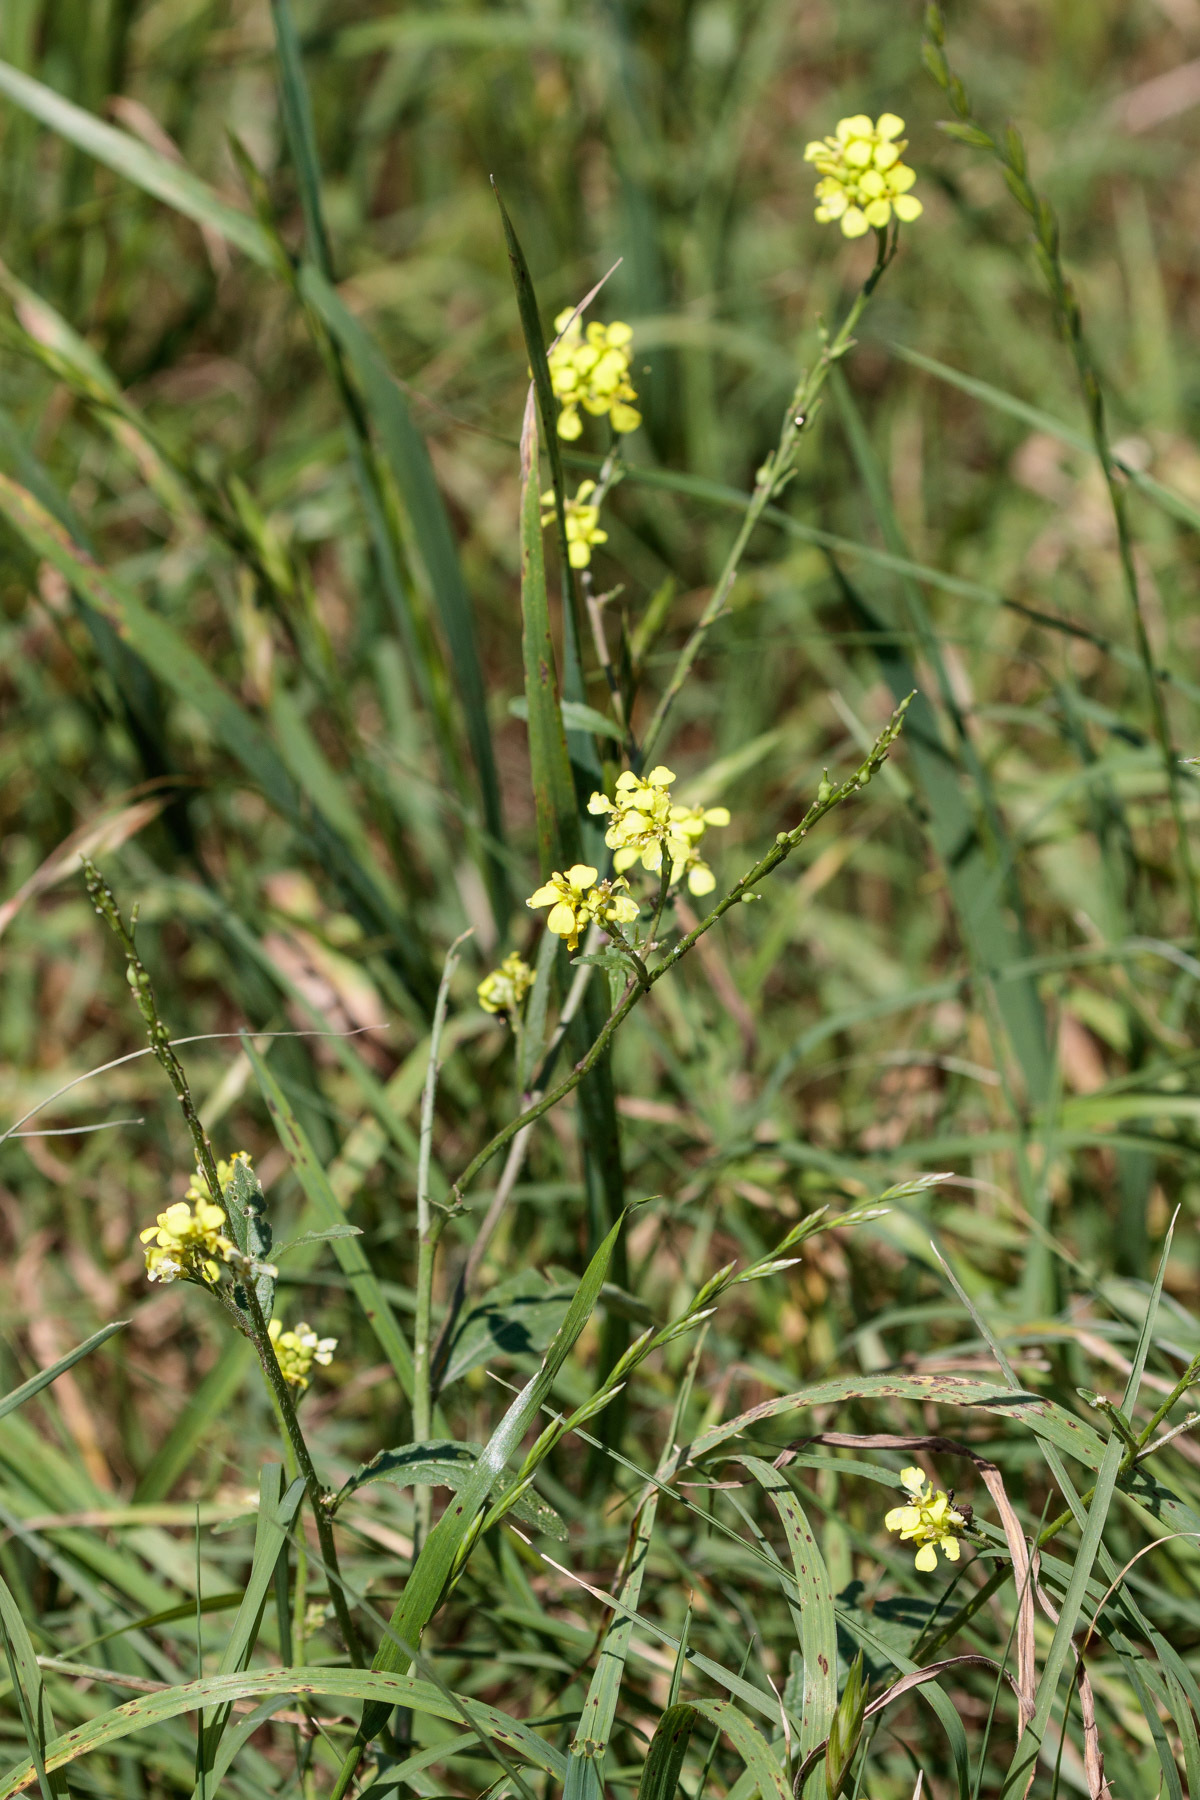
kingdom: Plantae
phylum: Tracheophyta
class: Magnoliopsida
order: Brassicales
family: Brassicaceae
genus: Rapistrum
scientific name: Rapistrum rugosum
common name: Annual bastardcabbage
